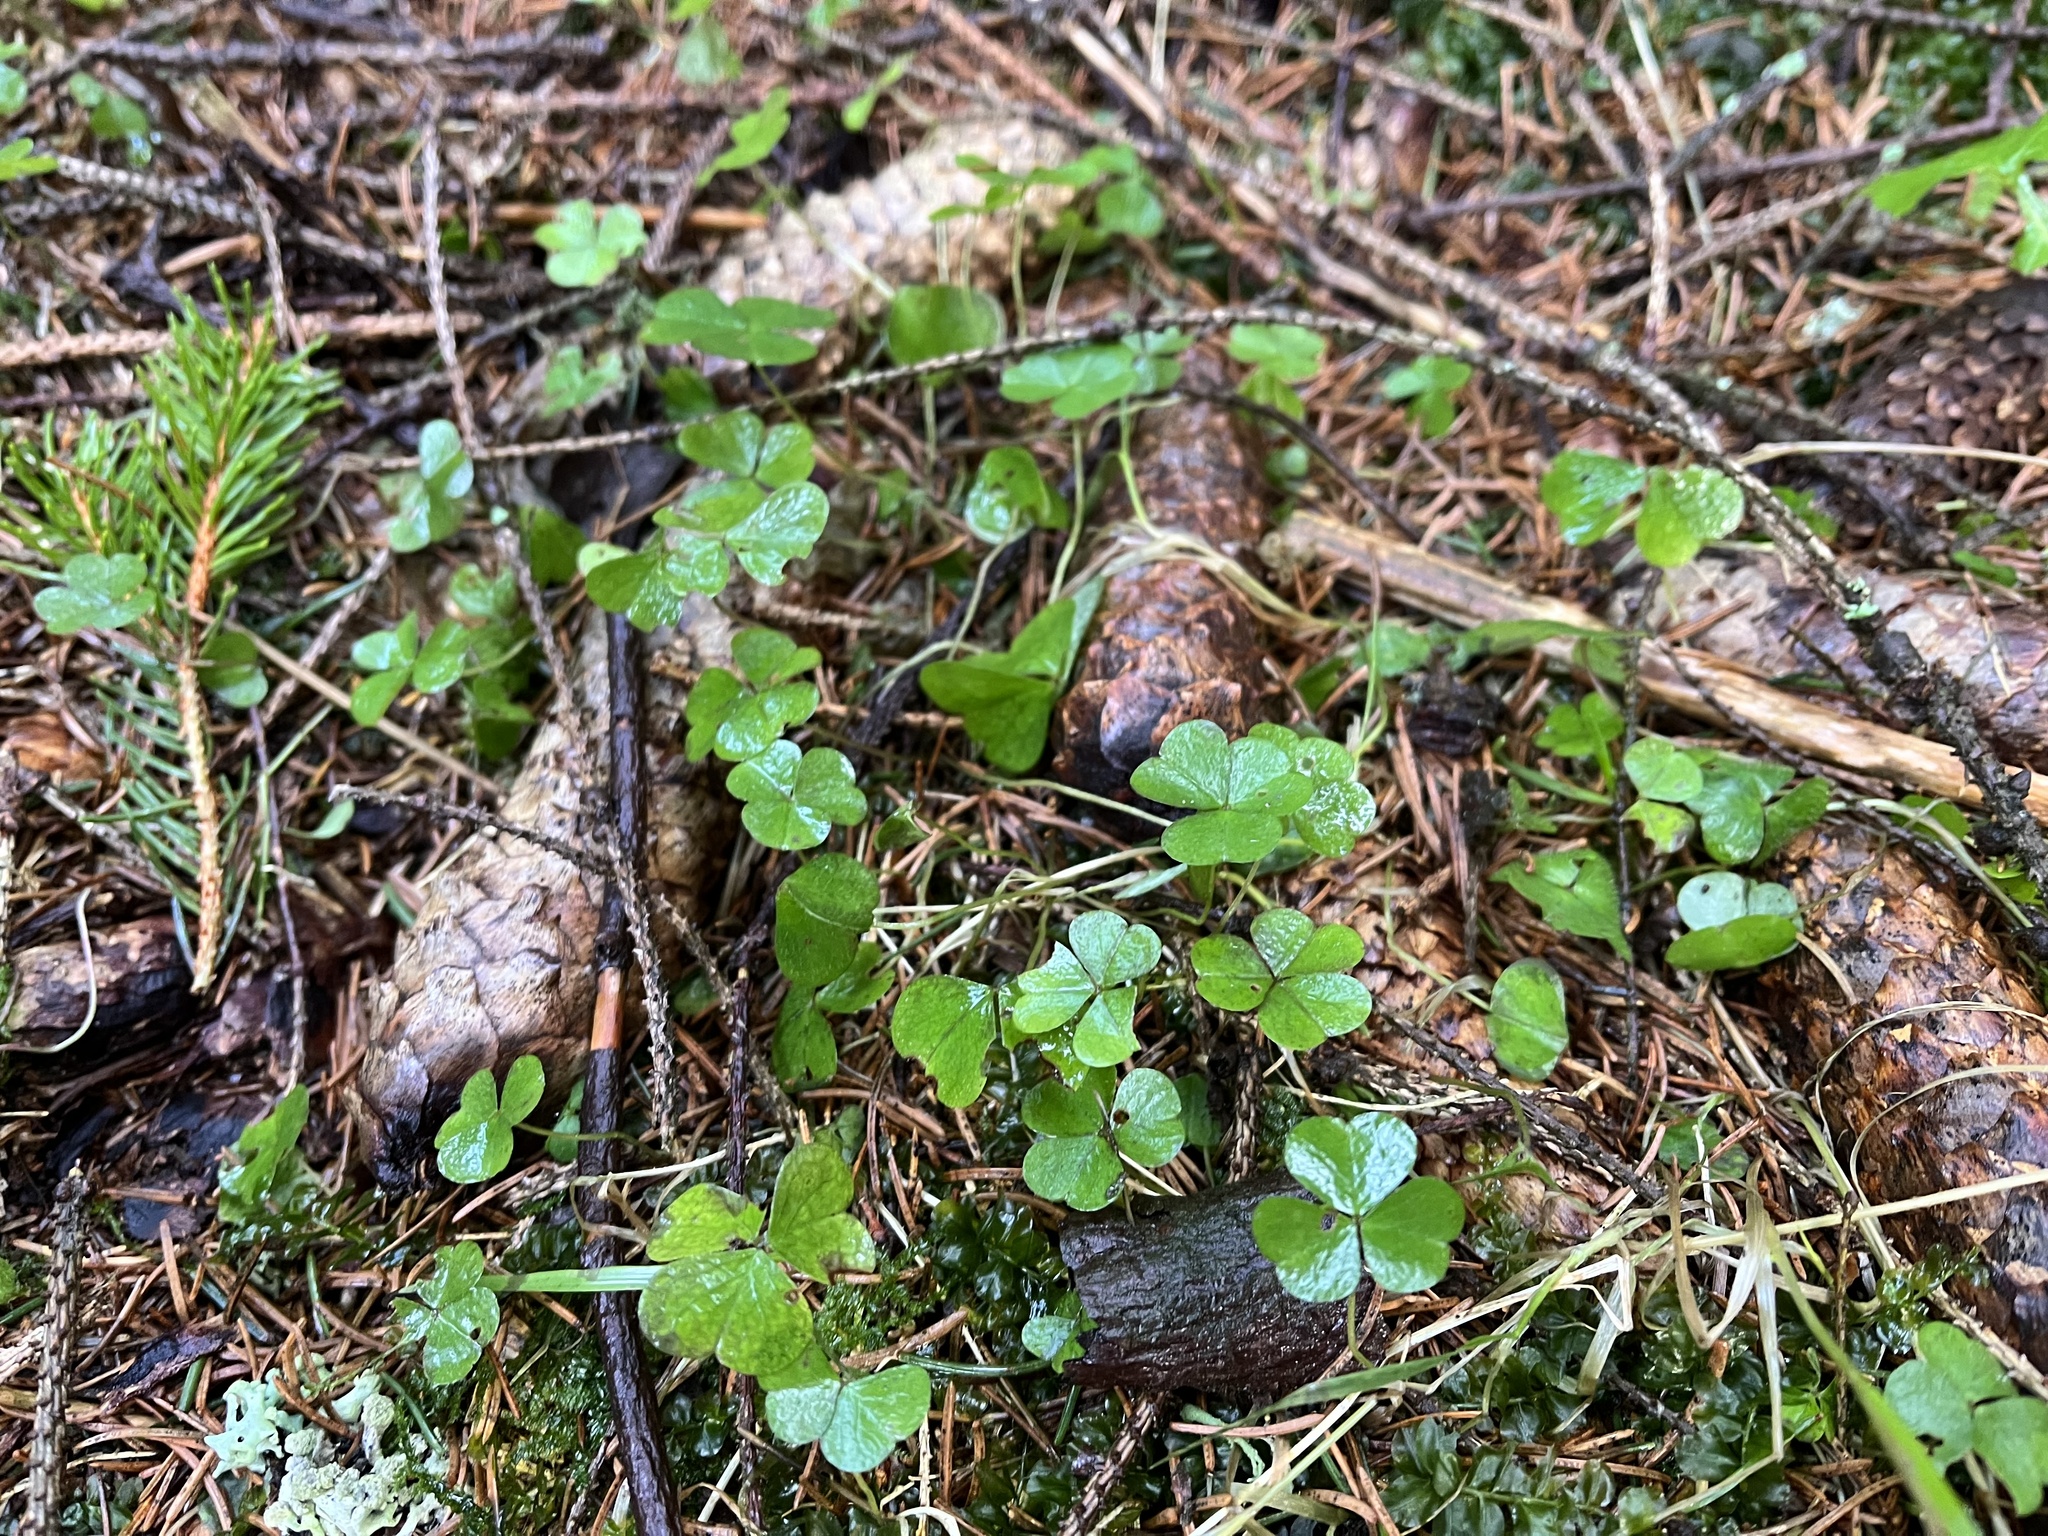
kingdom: Plantae
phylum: Tracheophyta
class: Magnoliopsida
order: Oxalidales
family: Oxalidaceae
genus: Oxalis
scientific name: Oxalis acetosella
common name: Wood-sorrel
